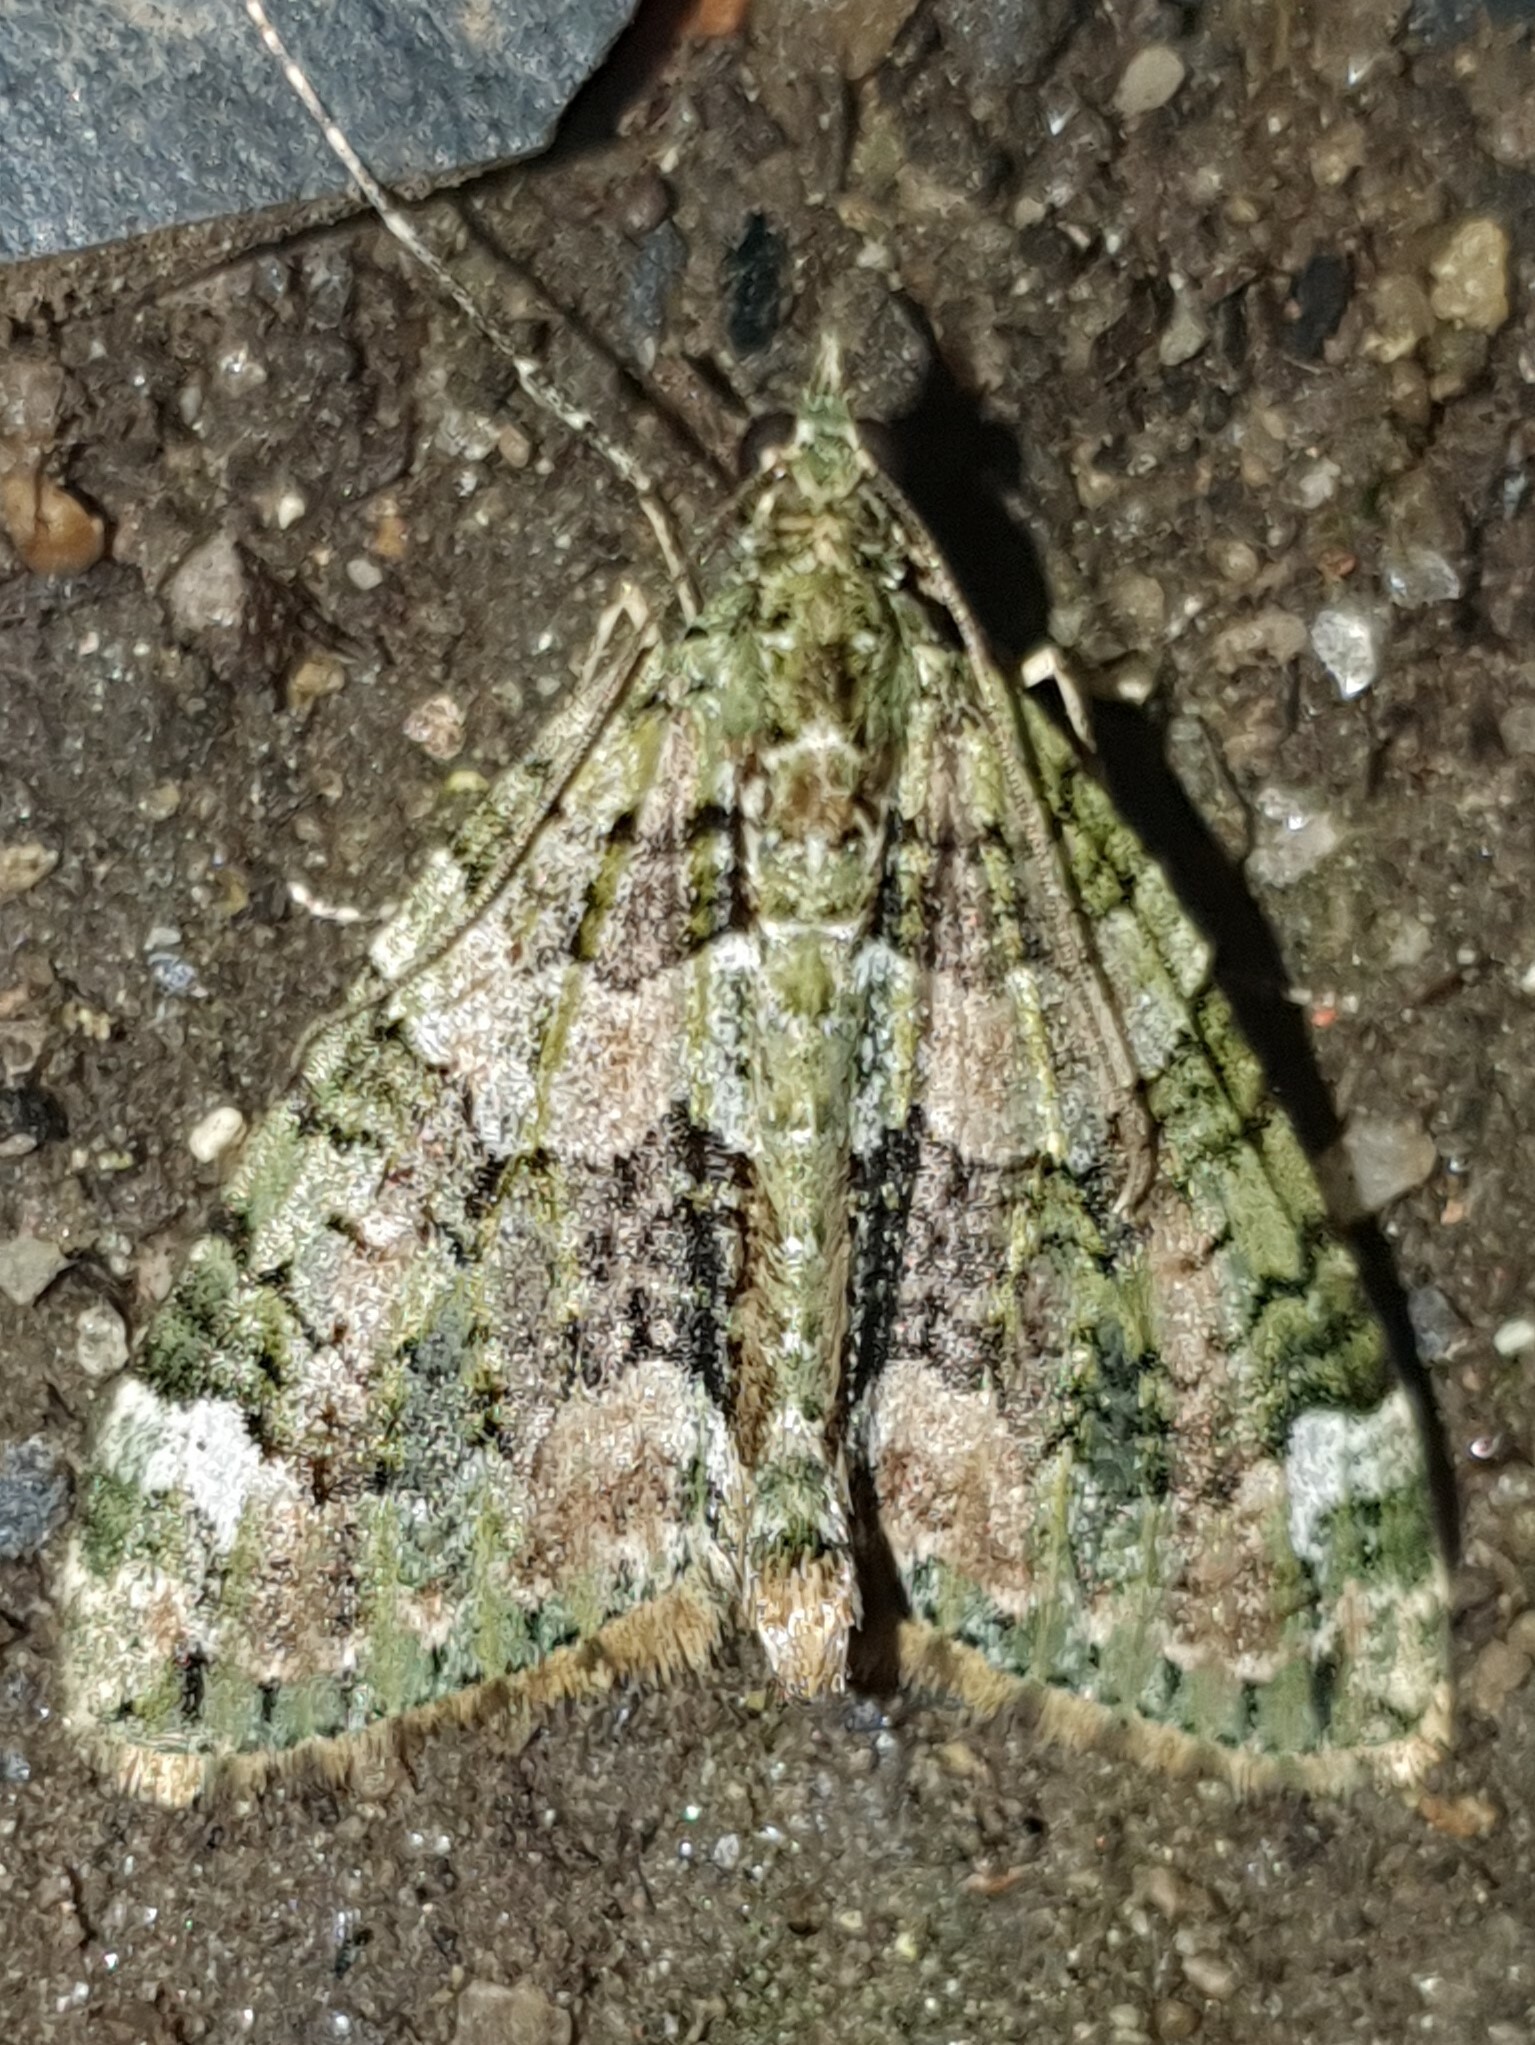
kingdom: Animalia
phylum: Arthropoda
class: Insecta
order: Lepidoptera
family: Geometridae
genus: Chloroclysta
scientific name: Chloroclysta siterata
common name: Red-green carpet
